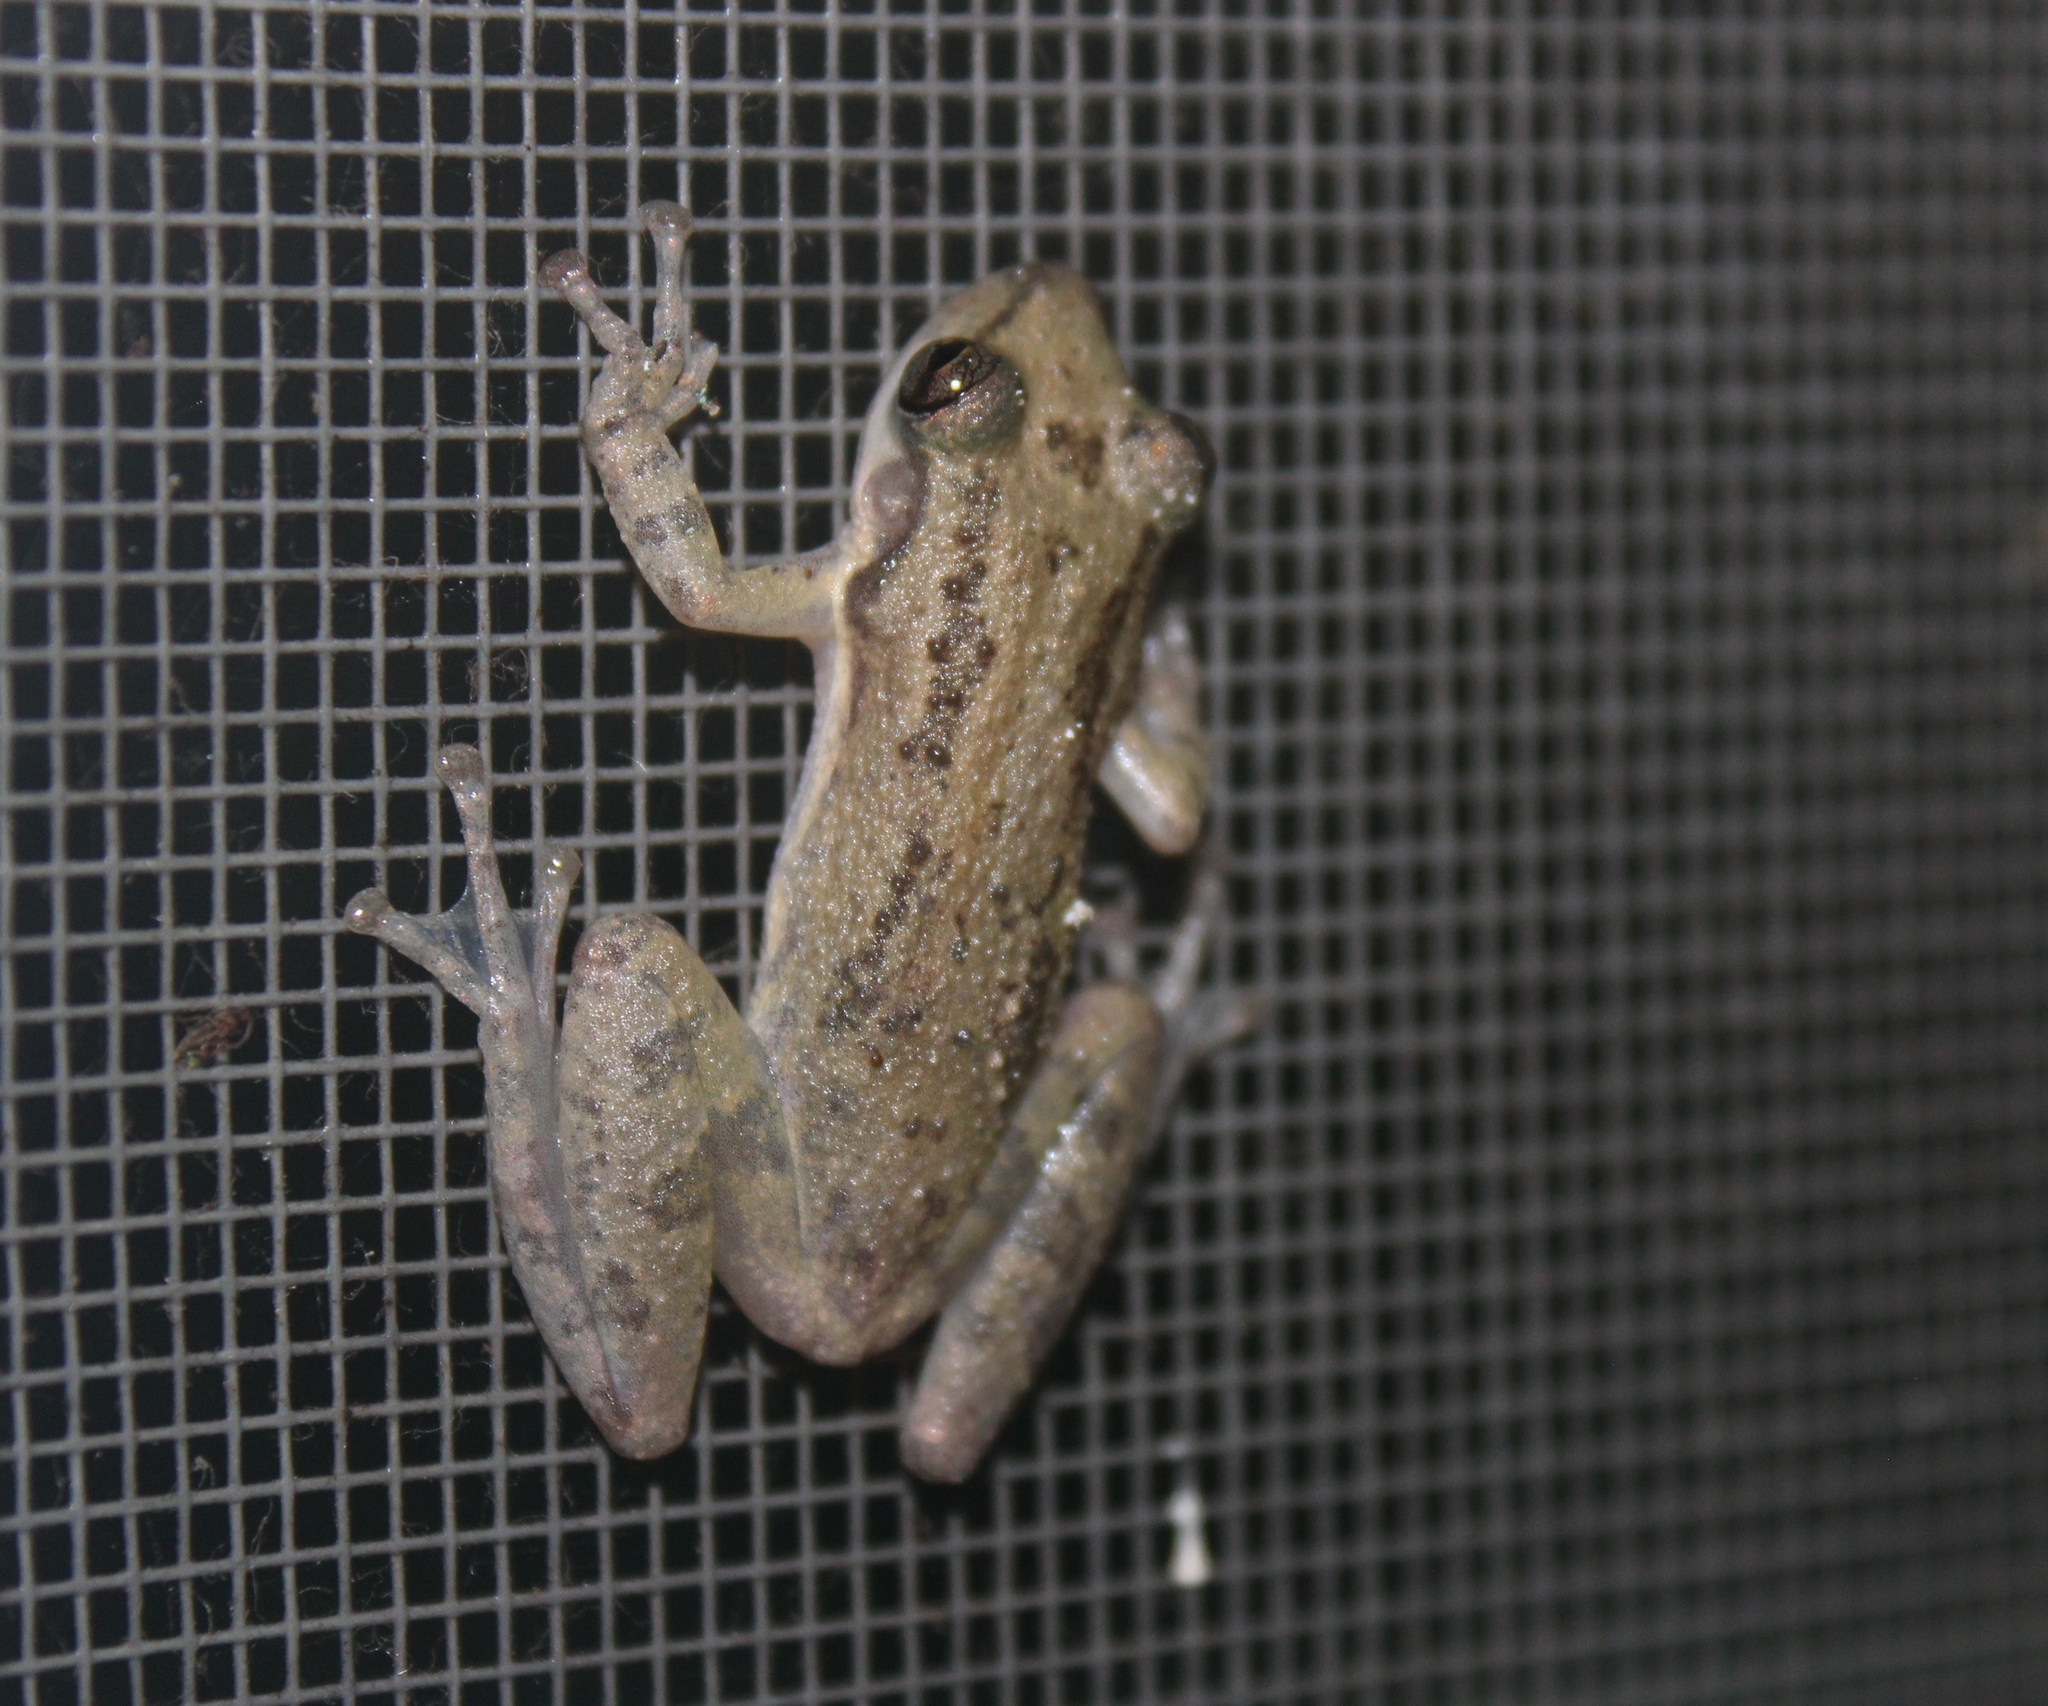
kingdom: Animalia
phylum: Chordata
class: Amphibia
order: Anura
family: Hylidae
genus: Scinax
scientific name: Scinax staufferi
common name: Stauffer's long-nosed treefrog
